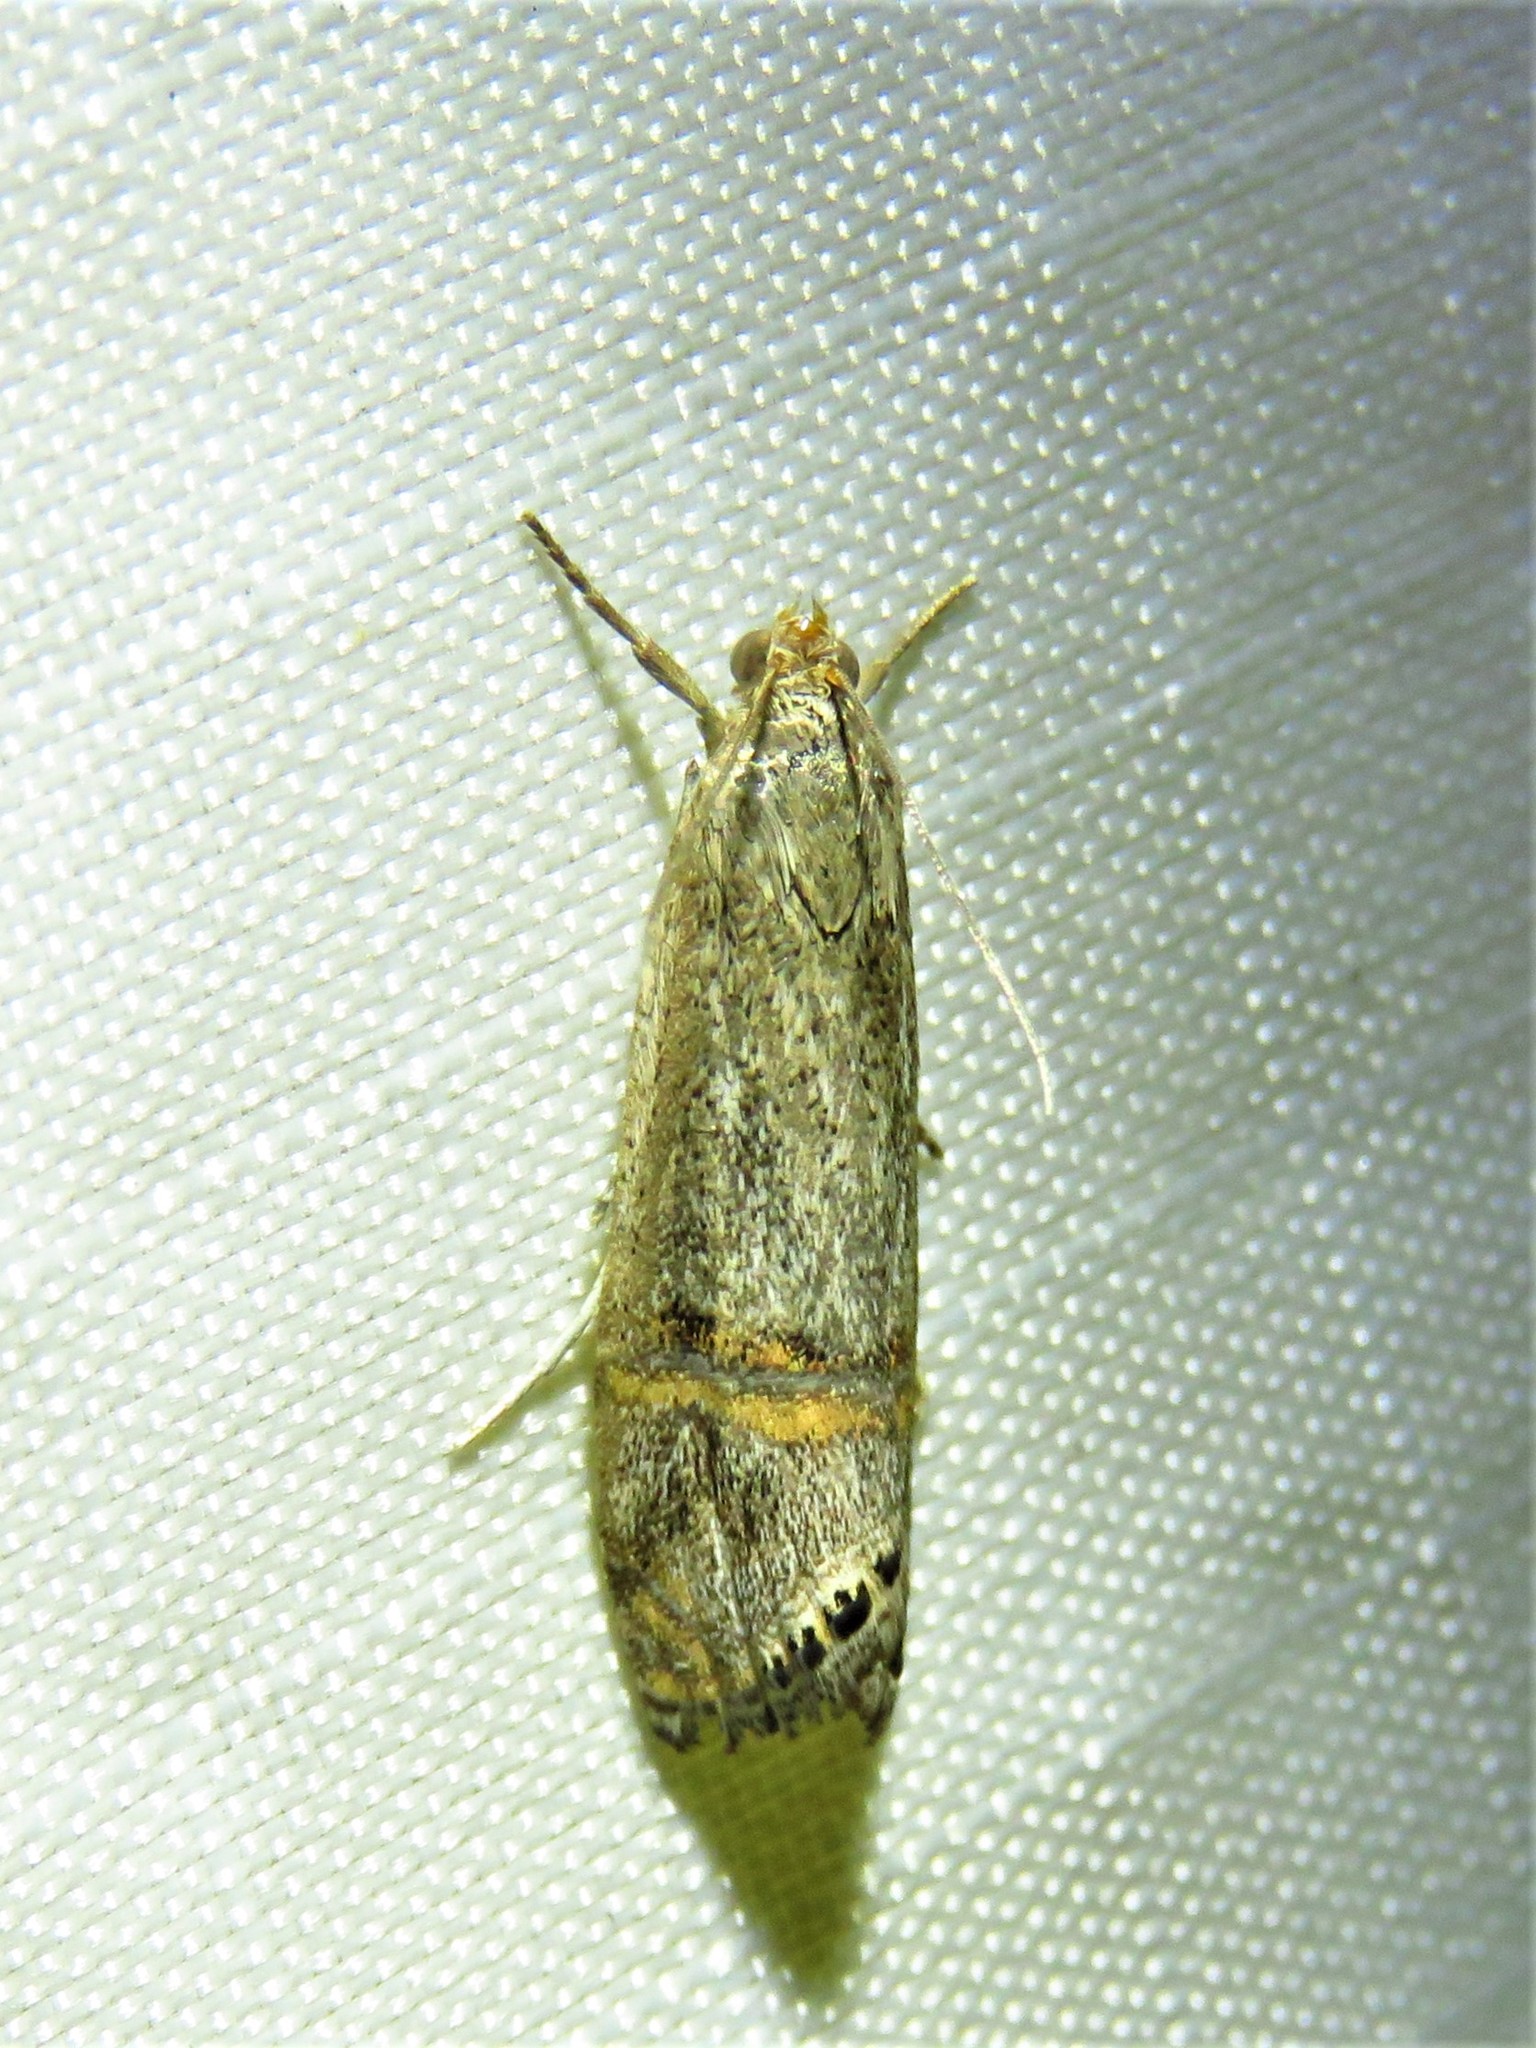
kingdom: Animalia
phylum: Arthropoda
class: Insecta
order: Lepidoptera
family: Crambidae
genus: Euchromius
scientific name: Euchromius ocellea
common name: Necklace veneer moth
